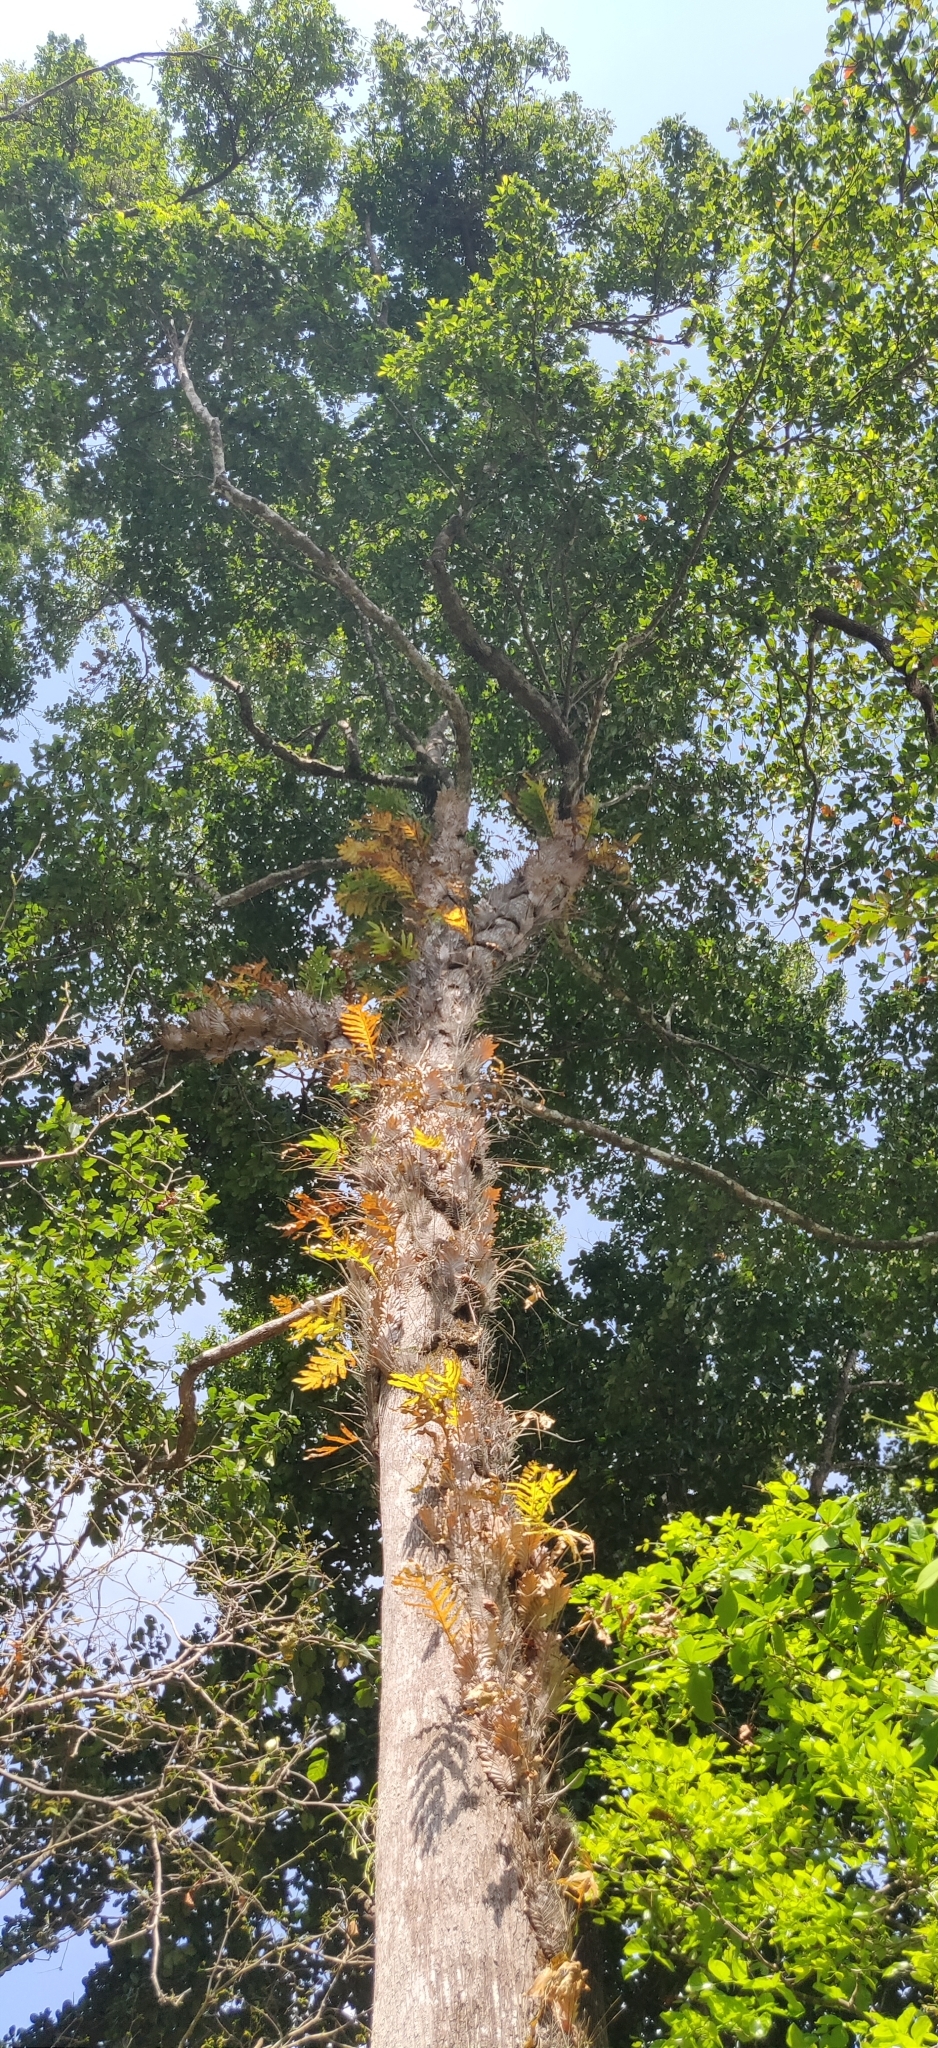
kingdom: Plantae
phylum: Tracheophyta
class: Magnoliopsida
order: Ericales
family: Sapotaceae
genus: Manilkara
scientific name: Manilkara littoralis
